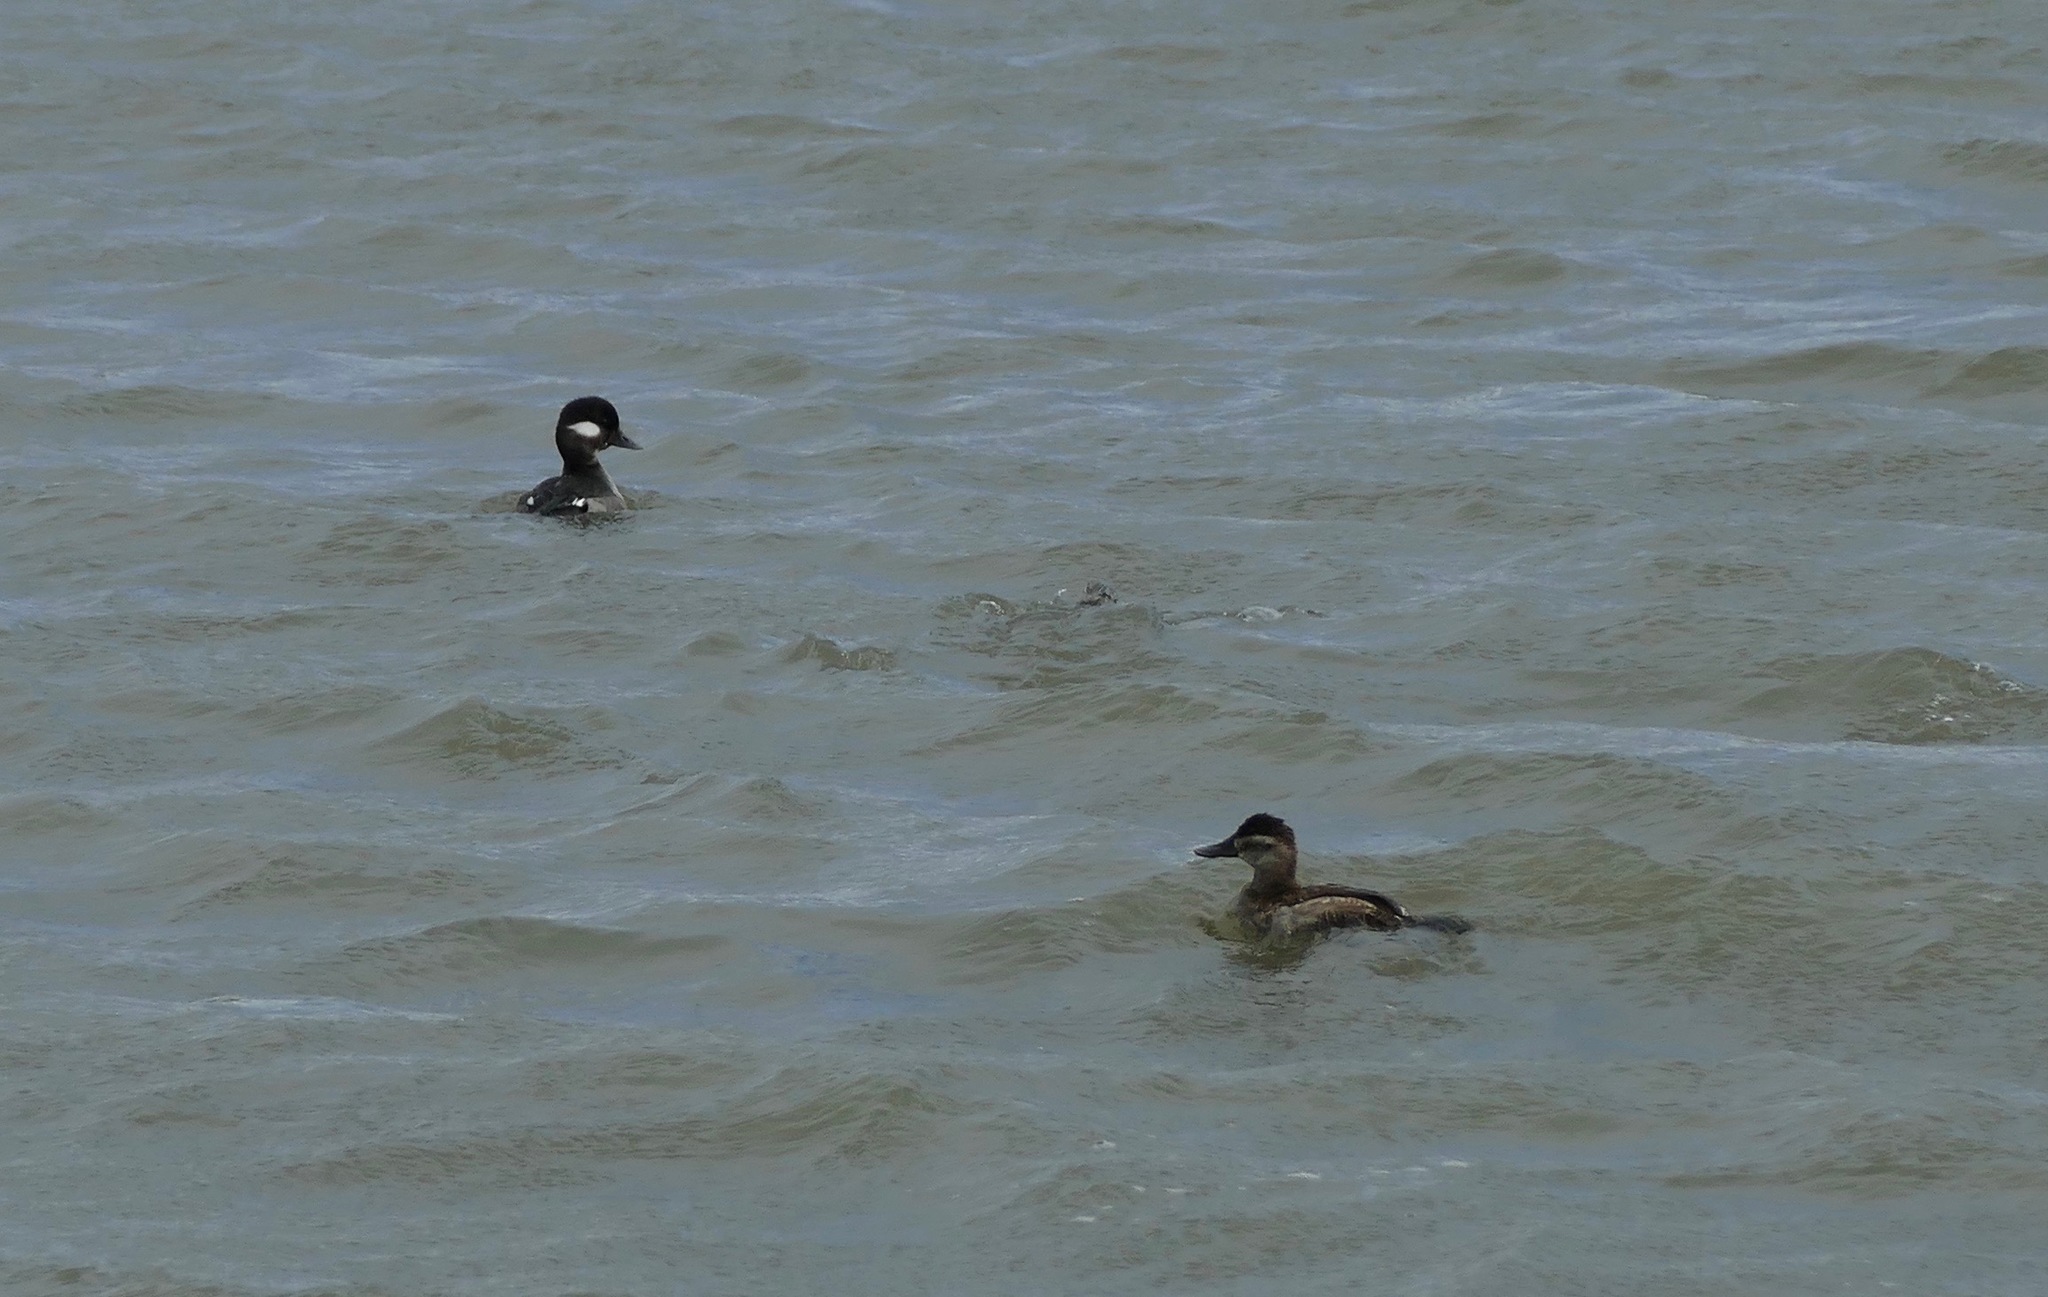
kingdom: Animalia
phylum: Chordata
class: Aves
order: Anseriformes
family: Anatidae
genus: Oxyura
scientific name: Oxyura jamaicensis
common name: Ruddy duck
